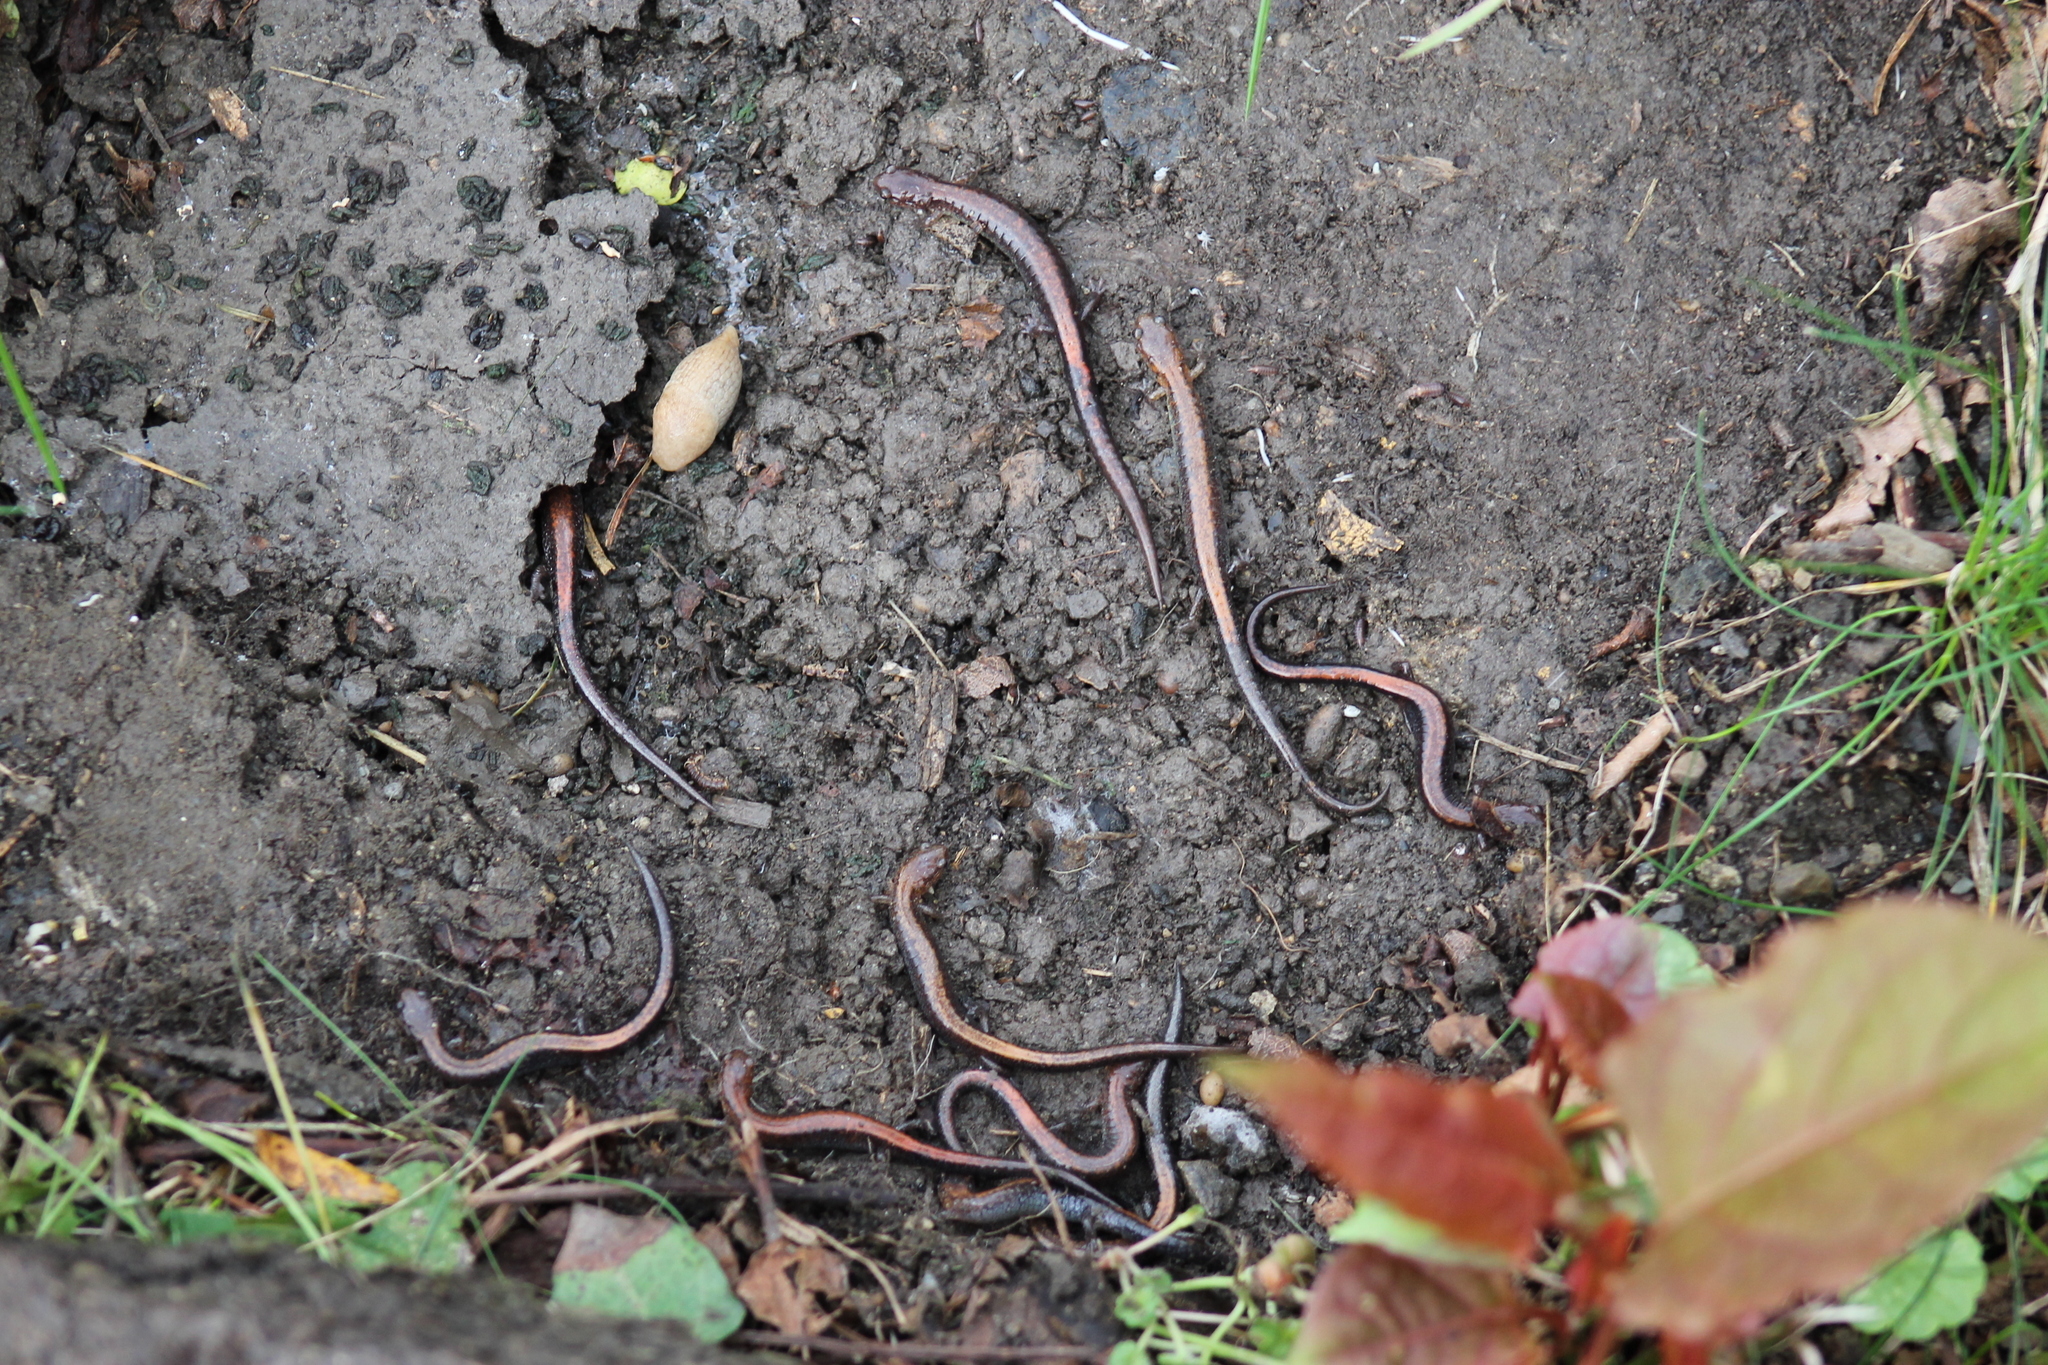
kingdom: Animalia
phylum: Chordata
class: Amphibia
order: Caudata
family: Plethodontidae
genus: Plethodon
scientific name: Plethodon cinereus
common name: Redback salamander
